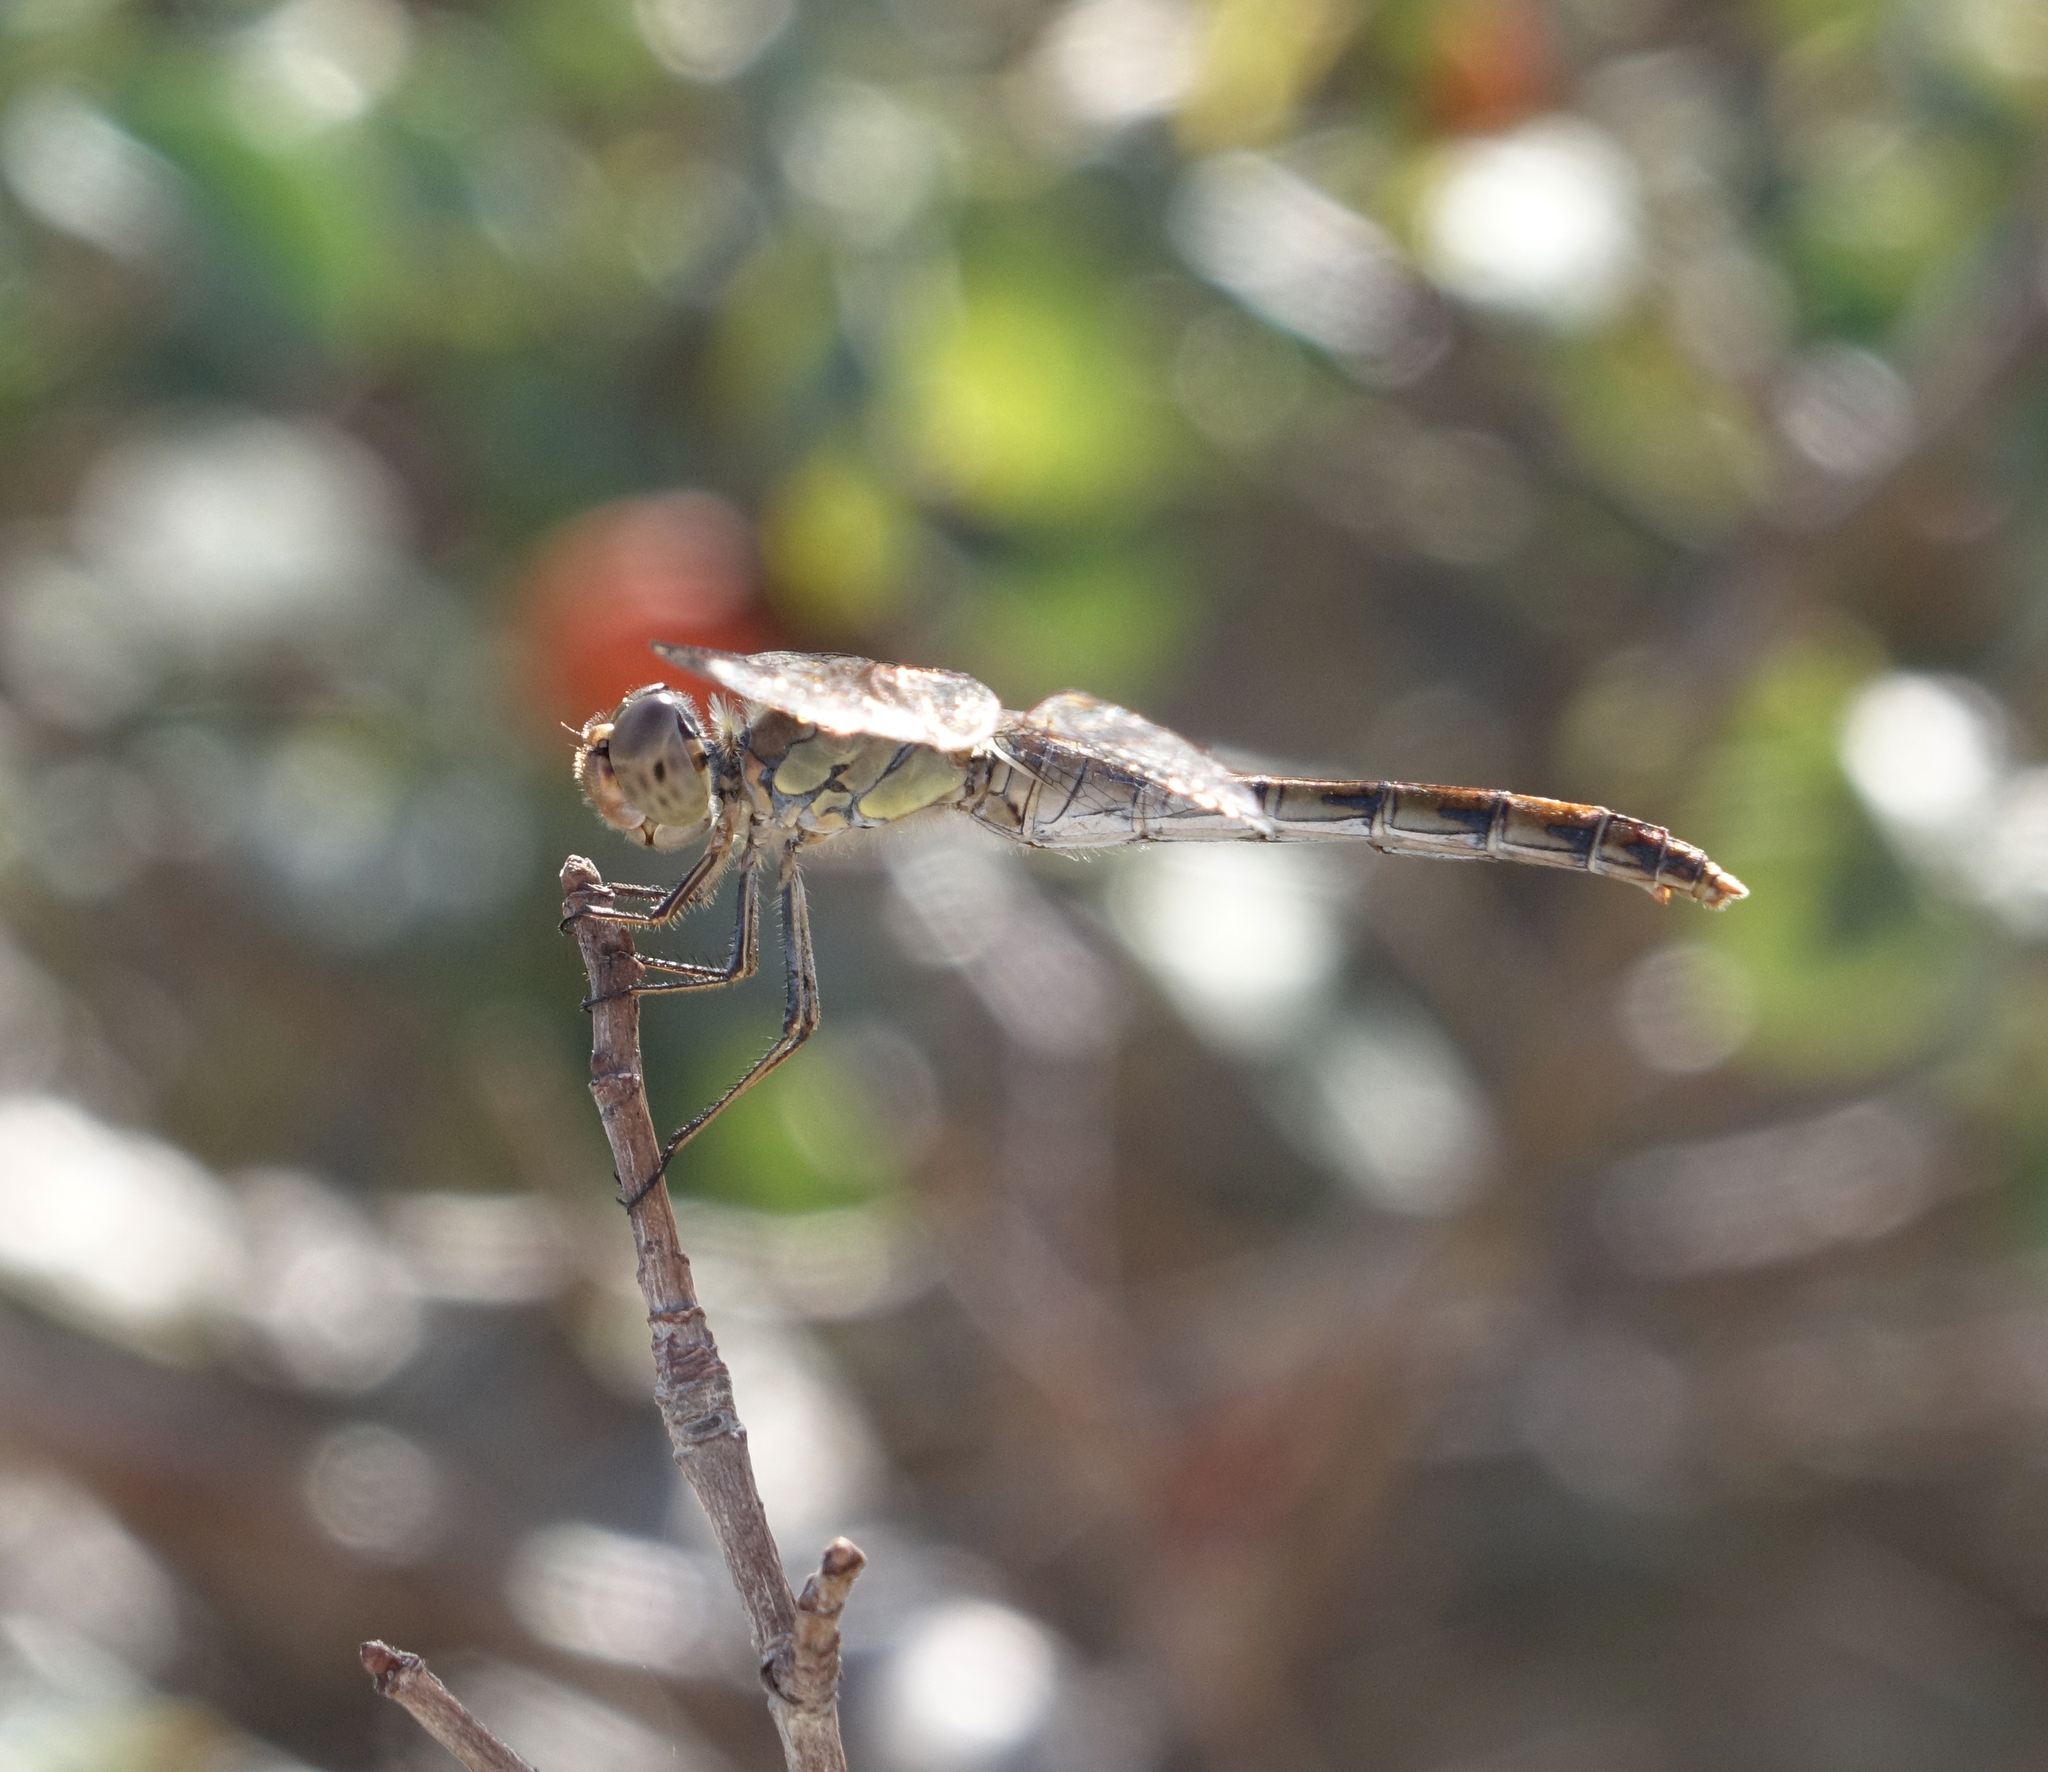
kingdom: Animalia
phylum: Arthropoda
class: Insecta
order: Odonata
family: Libellulidae
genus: Sympetrum
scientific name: Sympetrum striolatum
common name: Common darter
